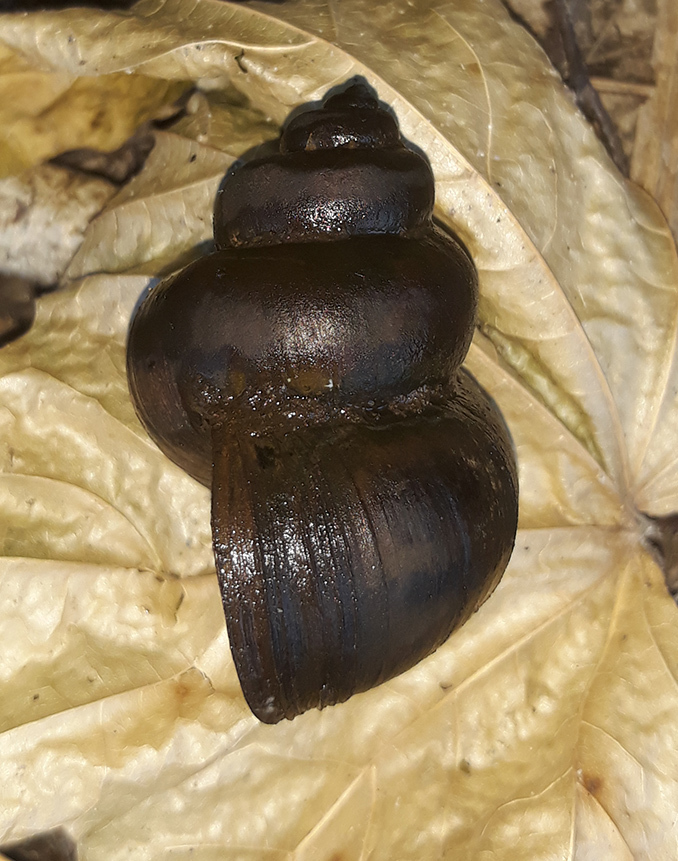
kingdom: Animalia
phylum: Mollusca
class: Gastropoda
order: Architaenioglossa
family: Viviparidae
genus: Viviparus
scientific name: Viviparus contectus
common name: Lister's river snail
